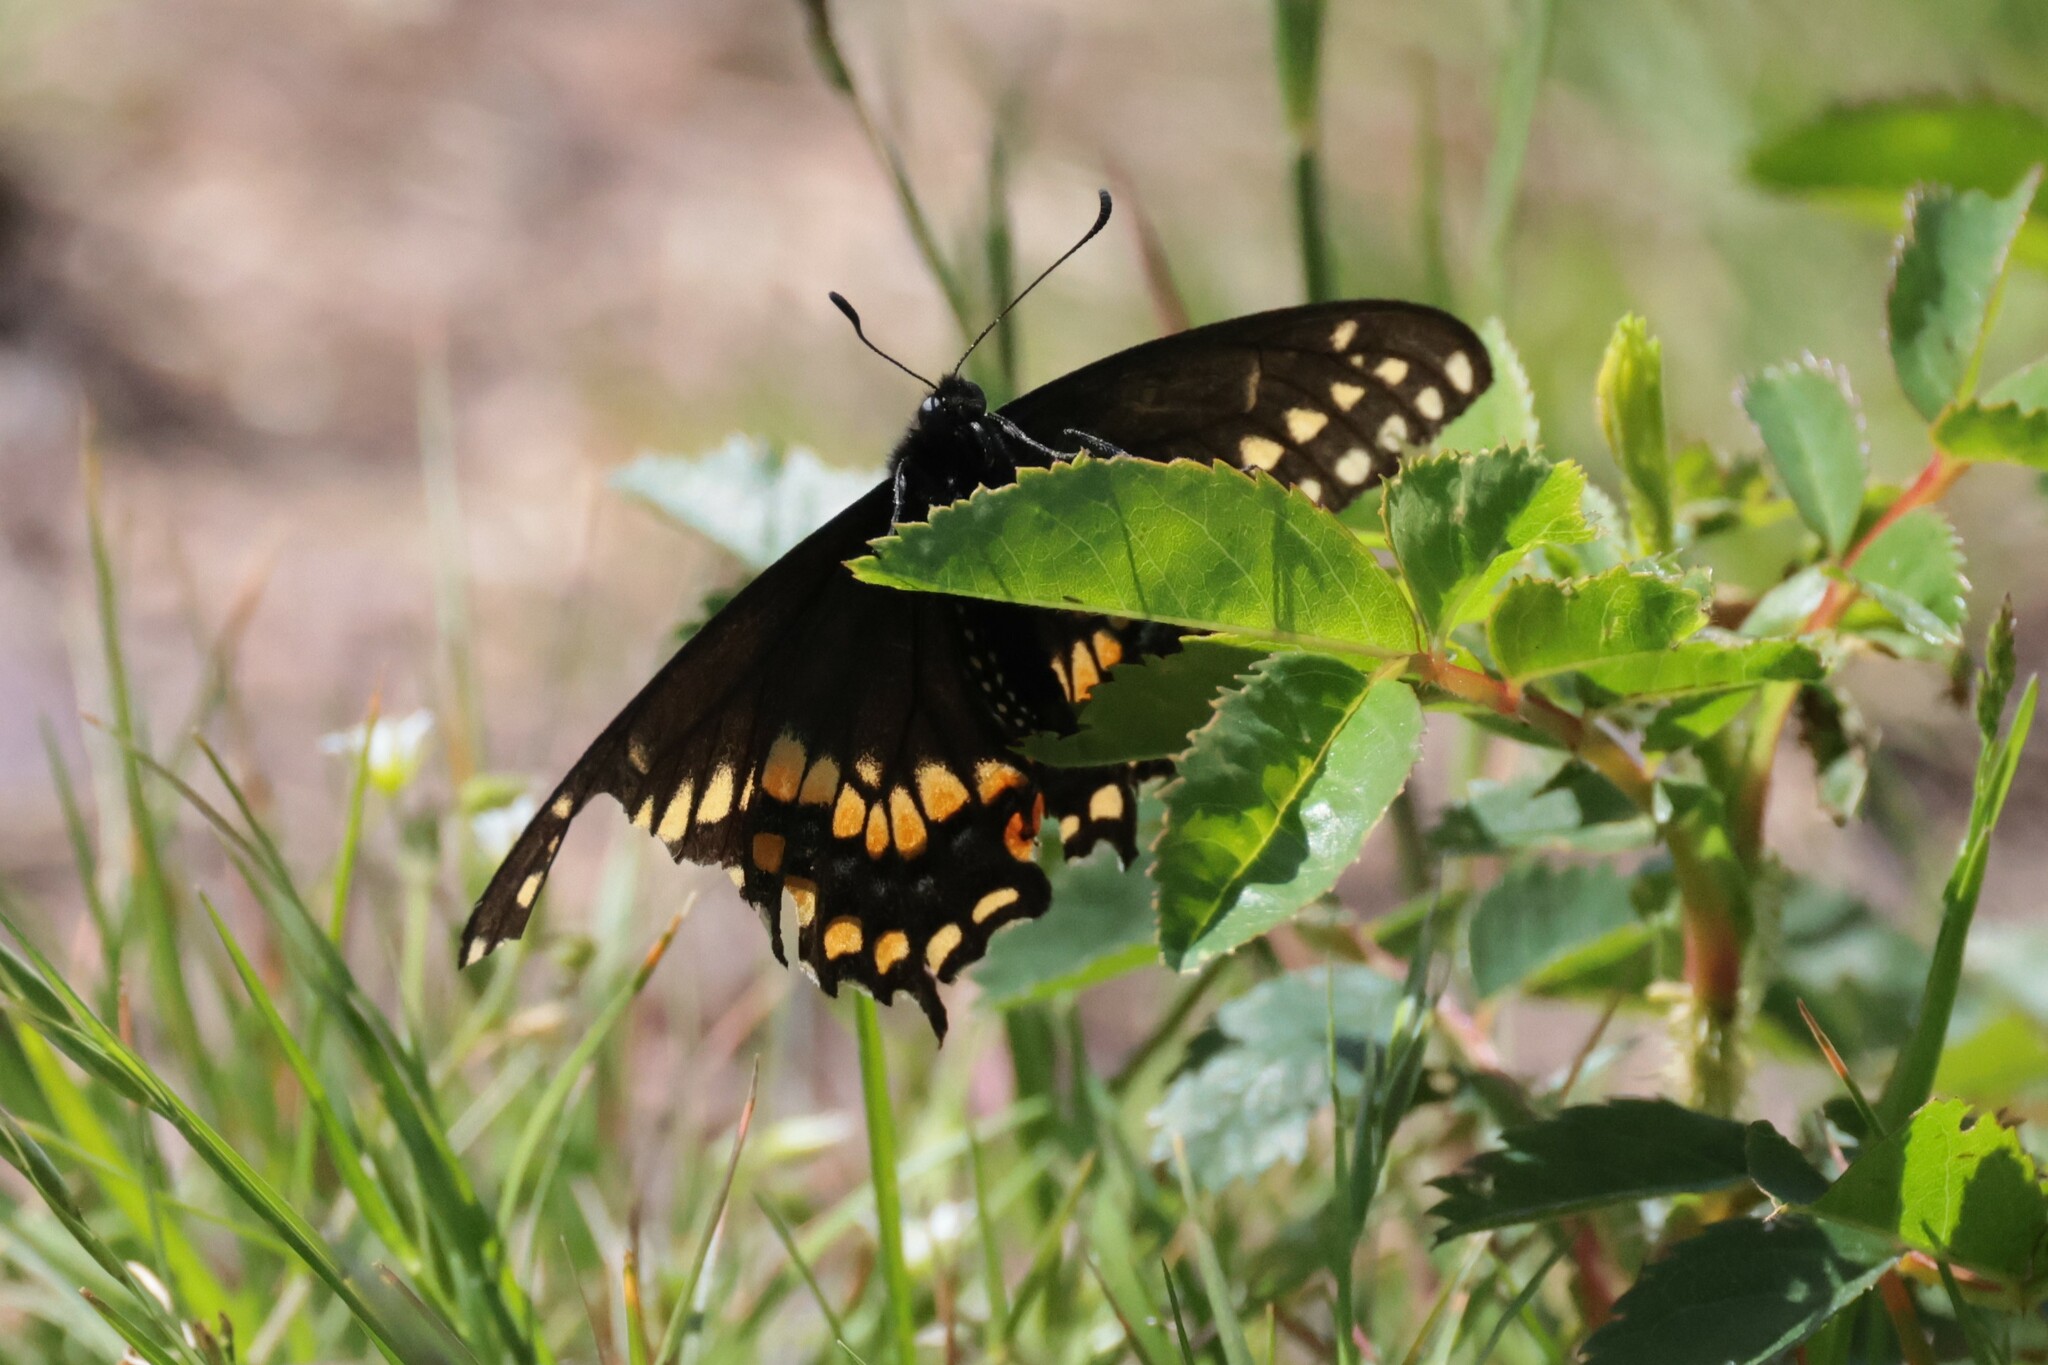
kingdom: Animalia
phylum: Arthropoda
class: Insecta
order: Lepidoptera
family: Papilionidae
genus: Papilio
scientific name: Papilio polyxenes
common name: Black swallowtail
